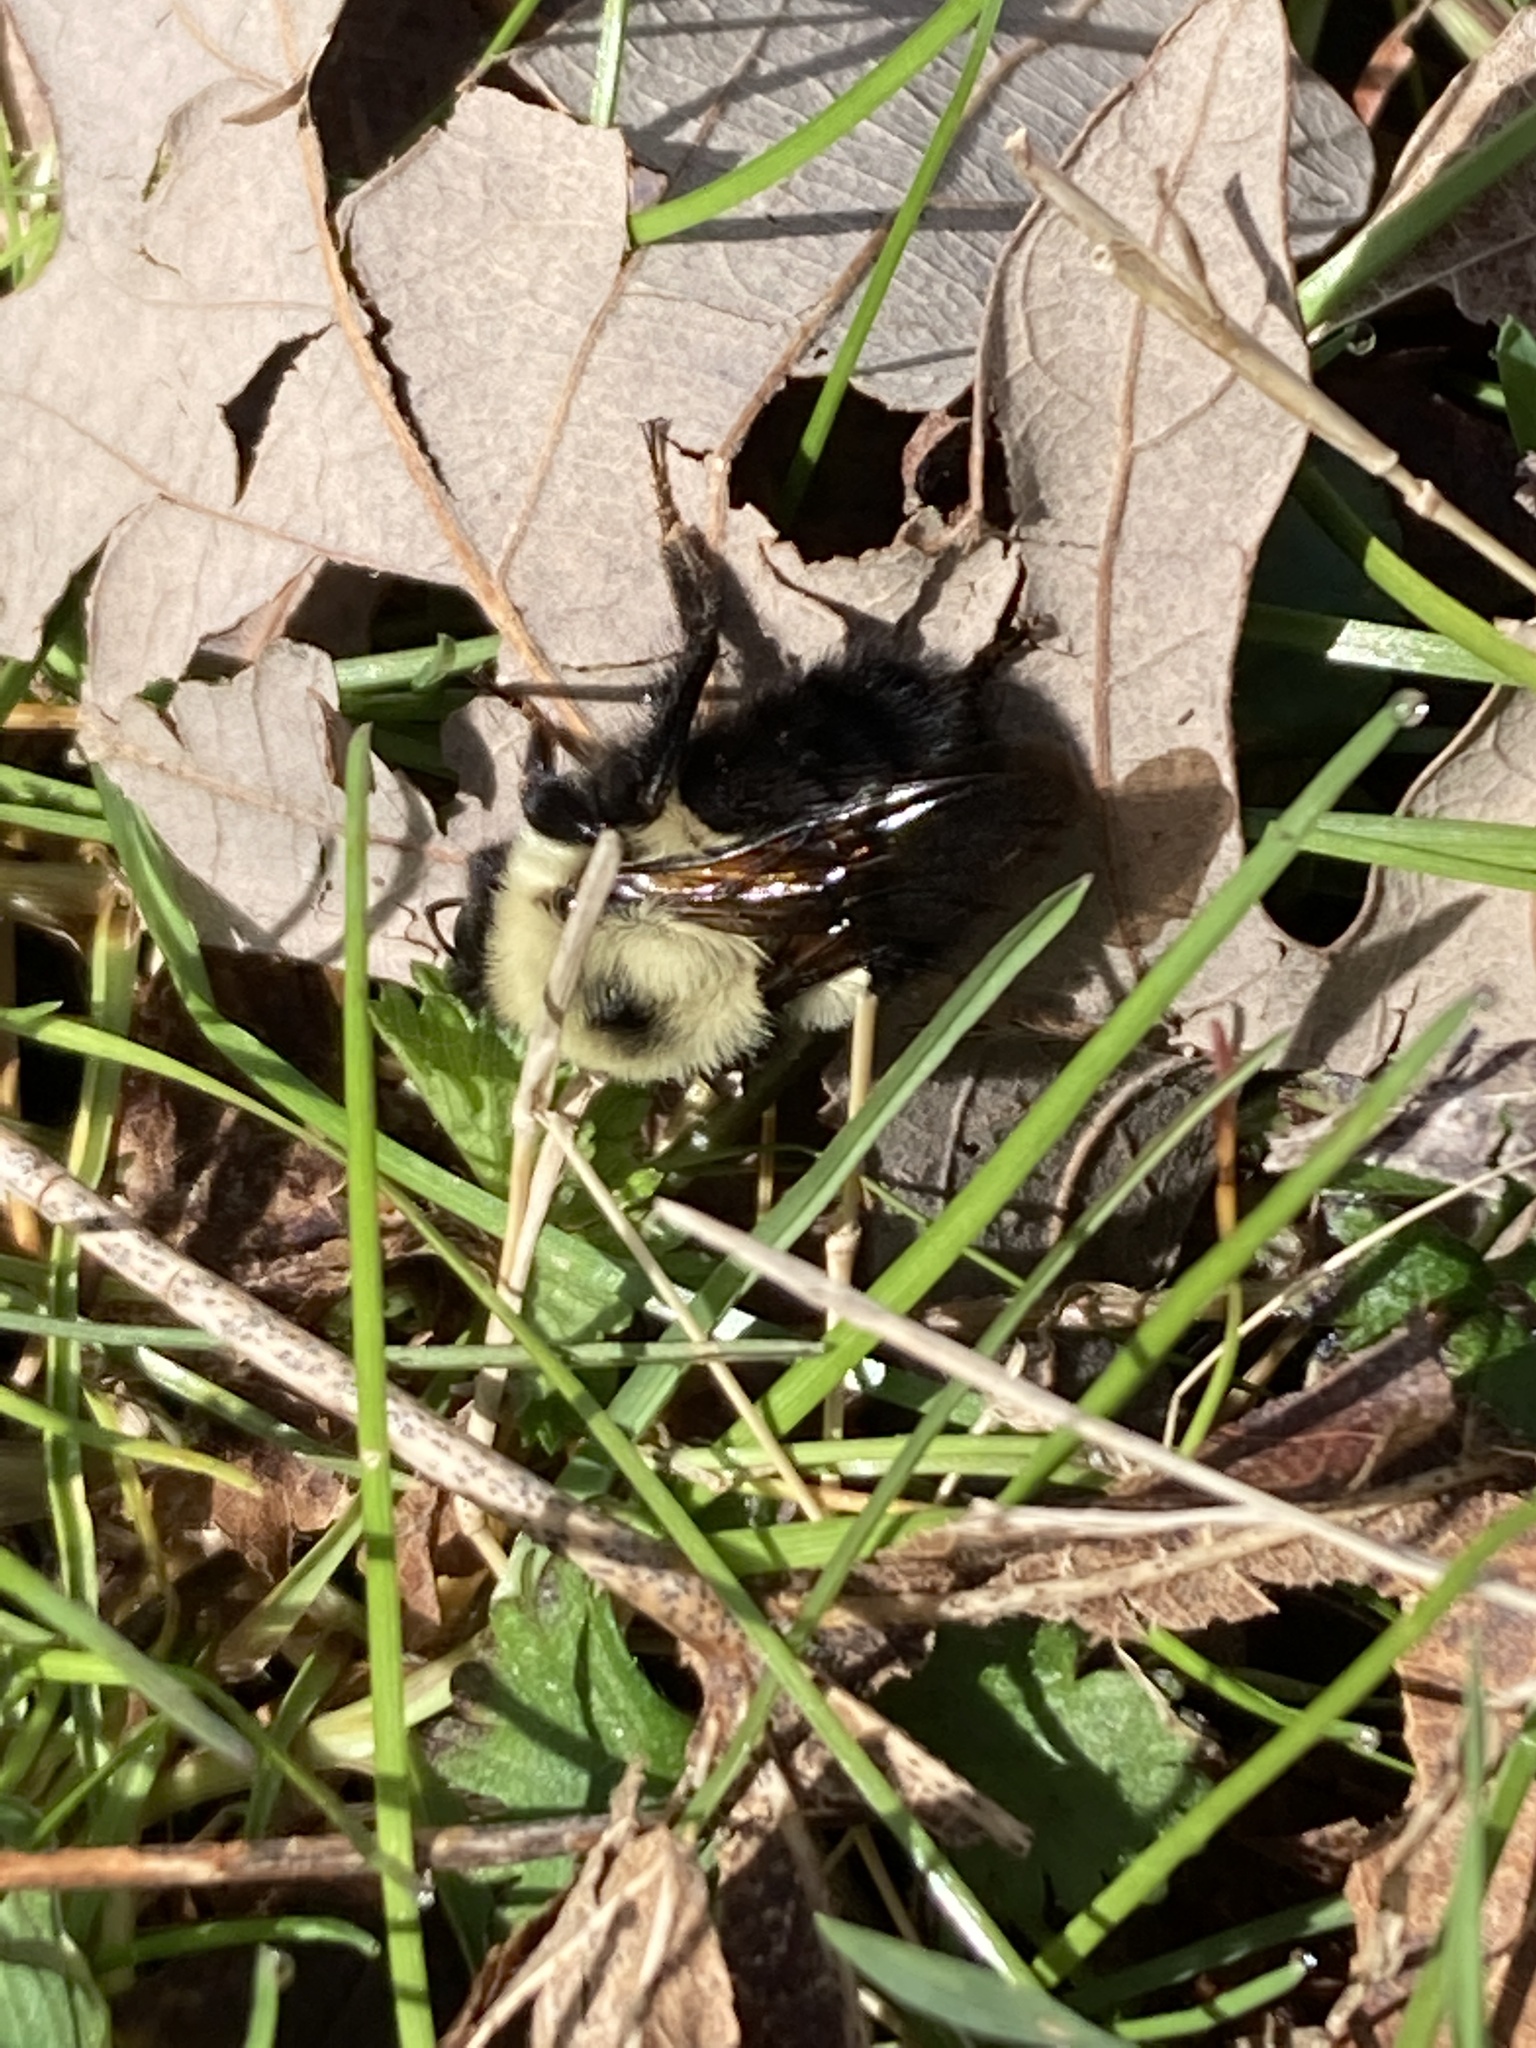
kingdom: Animalia
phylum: Arthropoda
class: Insecta
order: Hymenoptera
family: Apidae
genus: Bombus
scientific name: Bombus bimaculatus
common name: Two-spotted bumble bee
